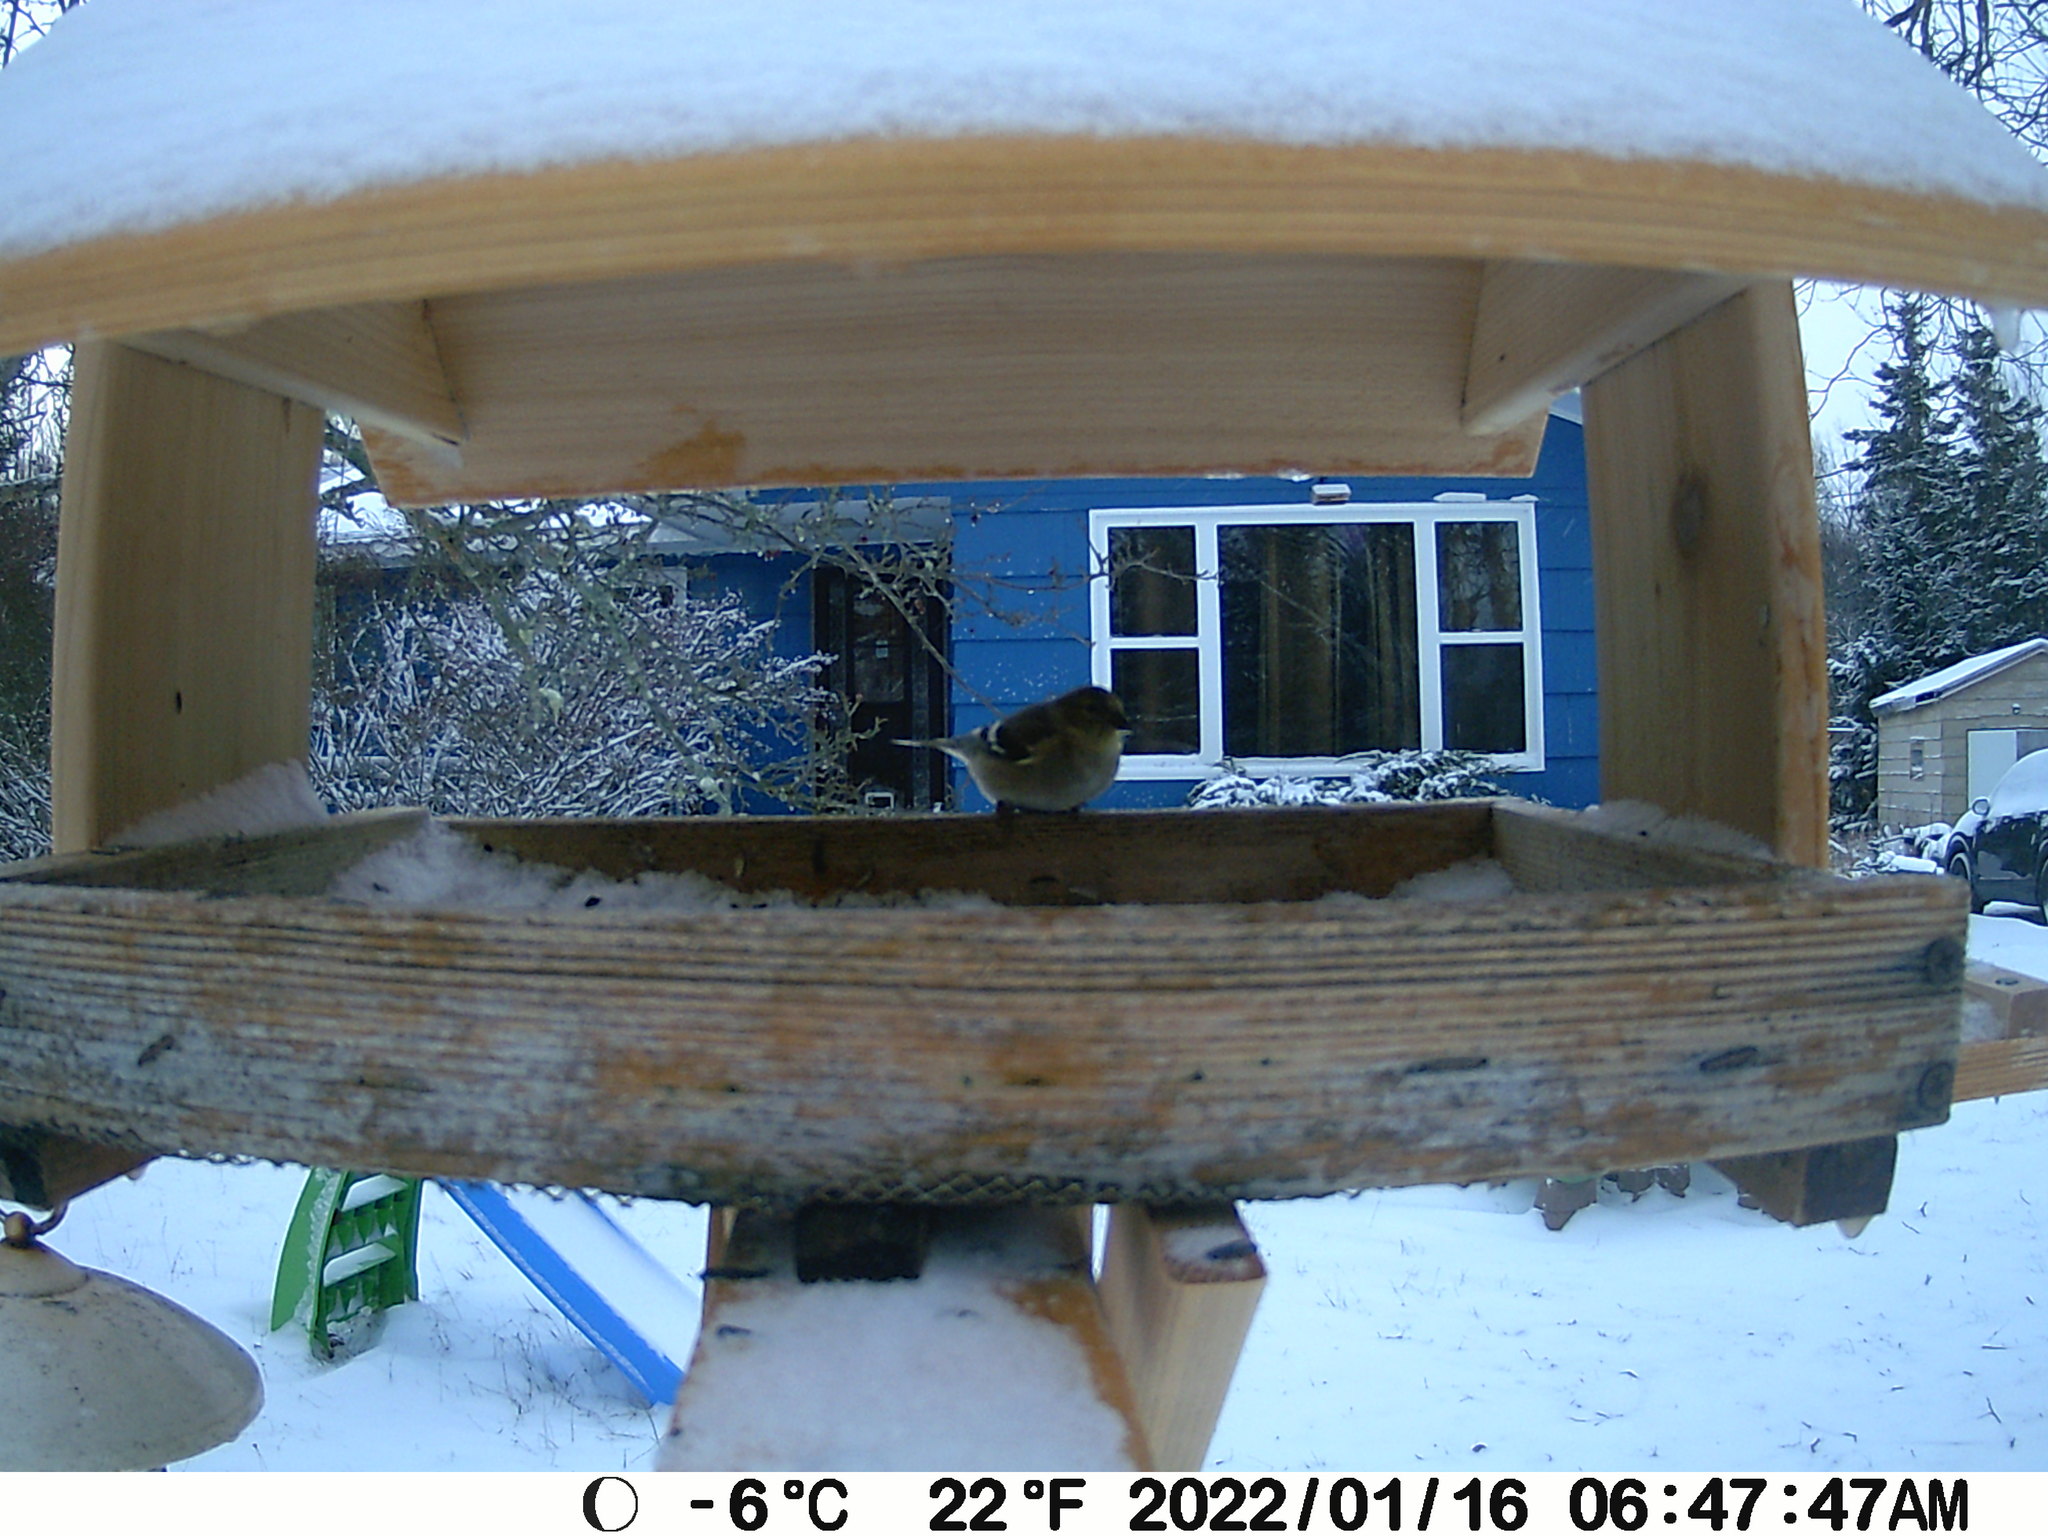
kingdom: Animalia
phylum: Chordata
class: Aves
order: Passeriformes
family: Fringillidae
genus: Spinus
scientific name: Spinus tristis
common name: American goldfinch
